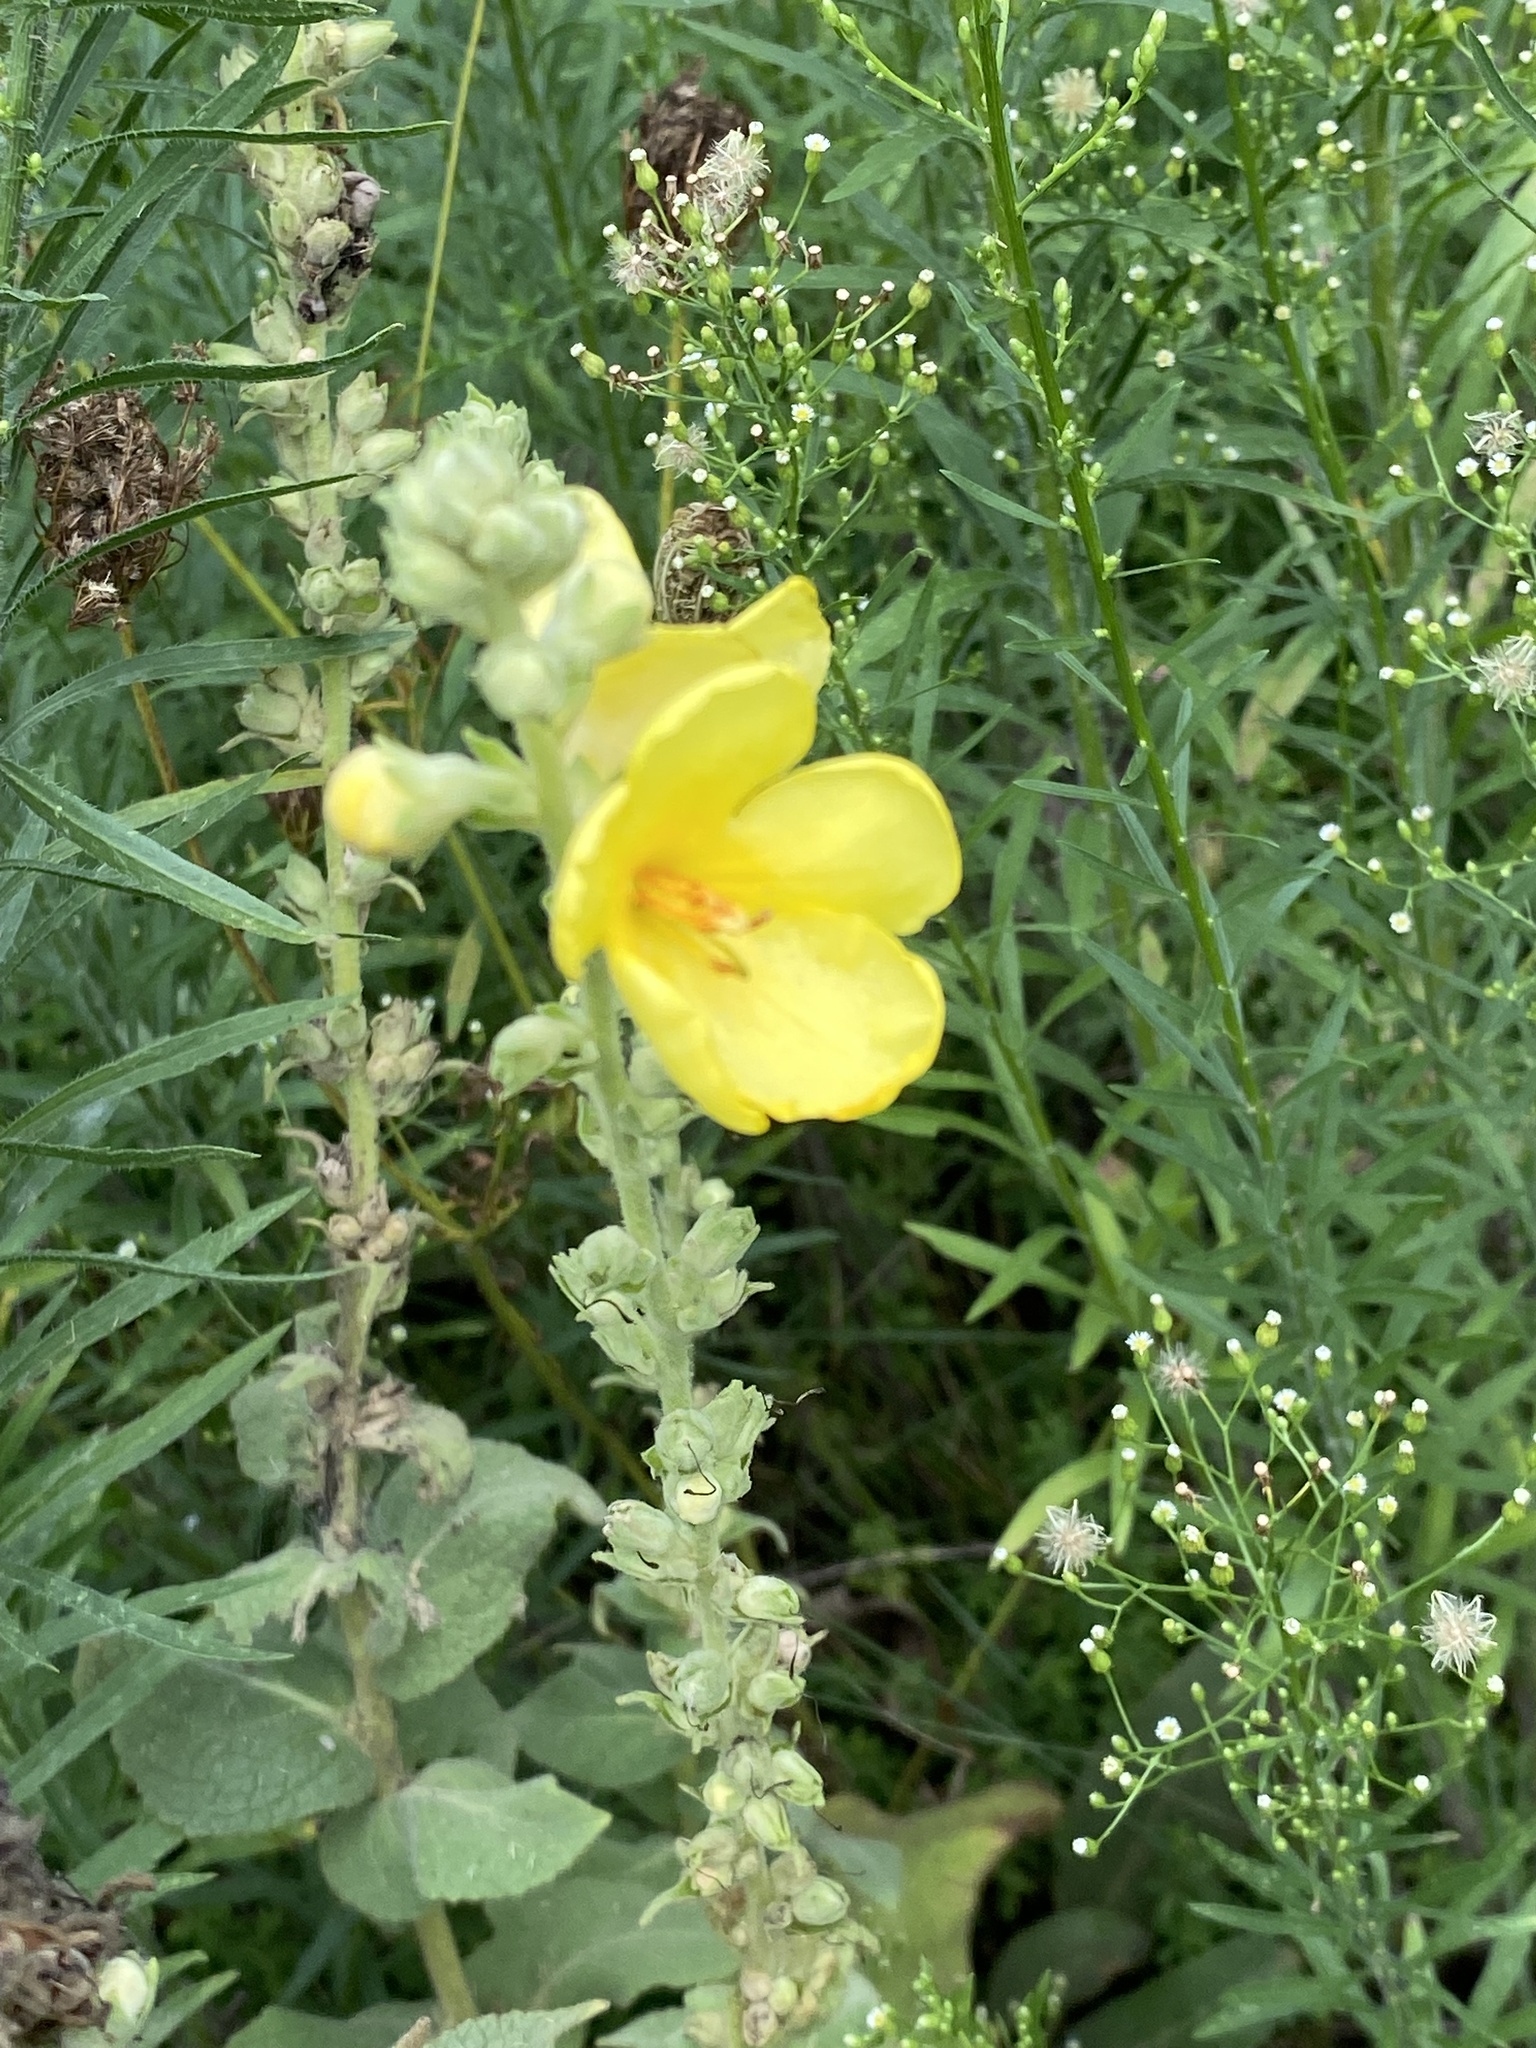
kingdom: Plantae
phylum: Tracheophyta
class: Magnoliopsida
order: Lamiales
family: Scrophulariaceae
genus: Verbascum
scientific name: Verbascum phlomoides
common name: Orange mullein
